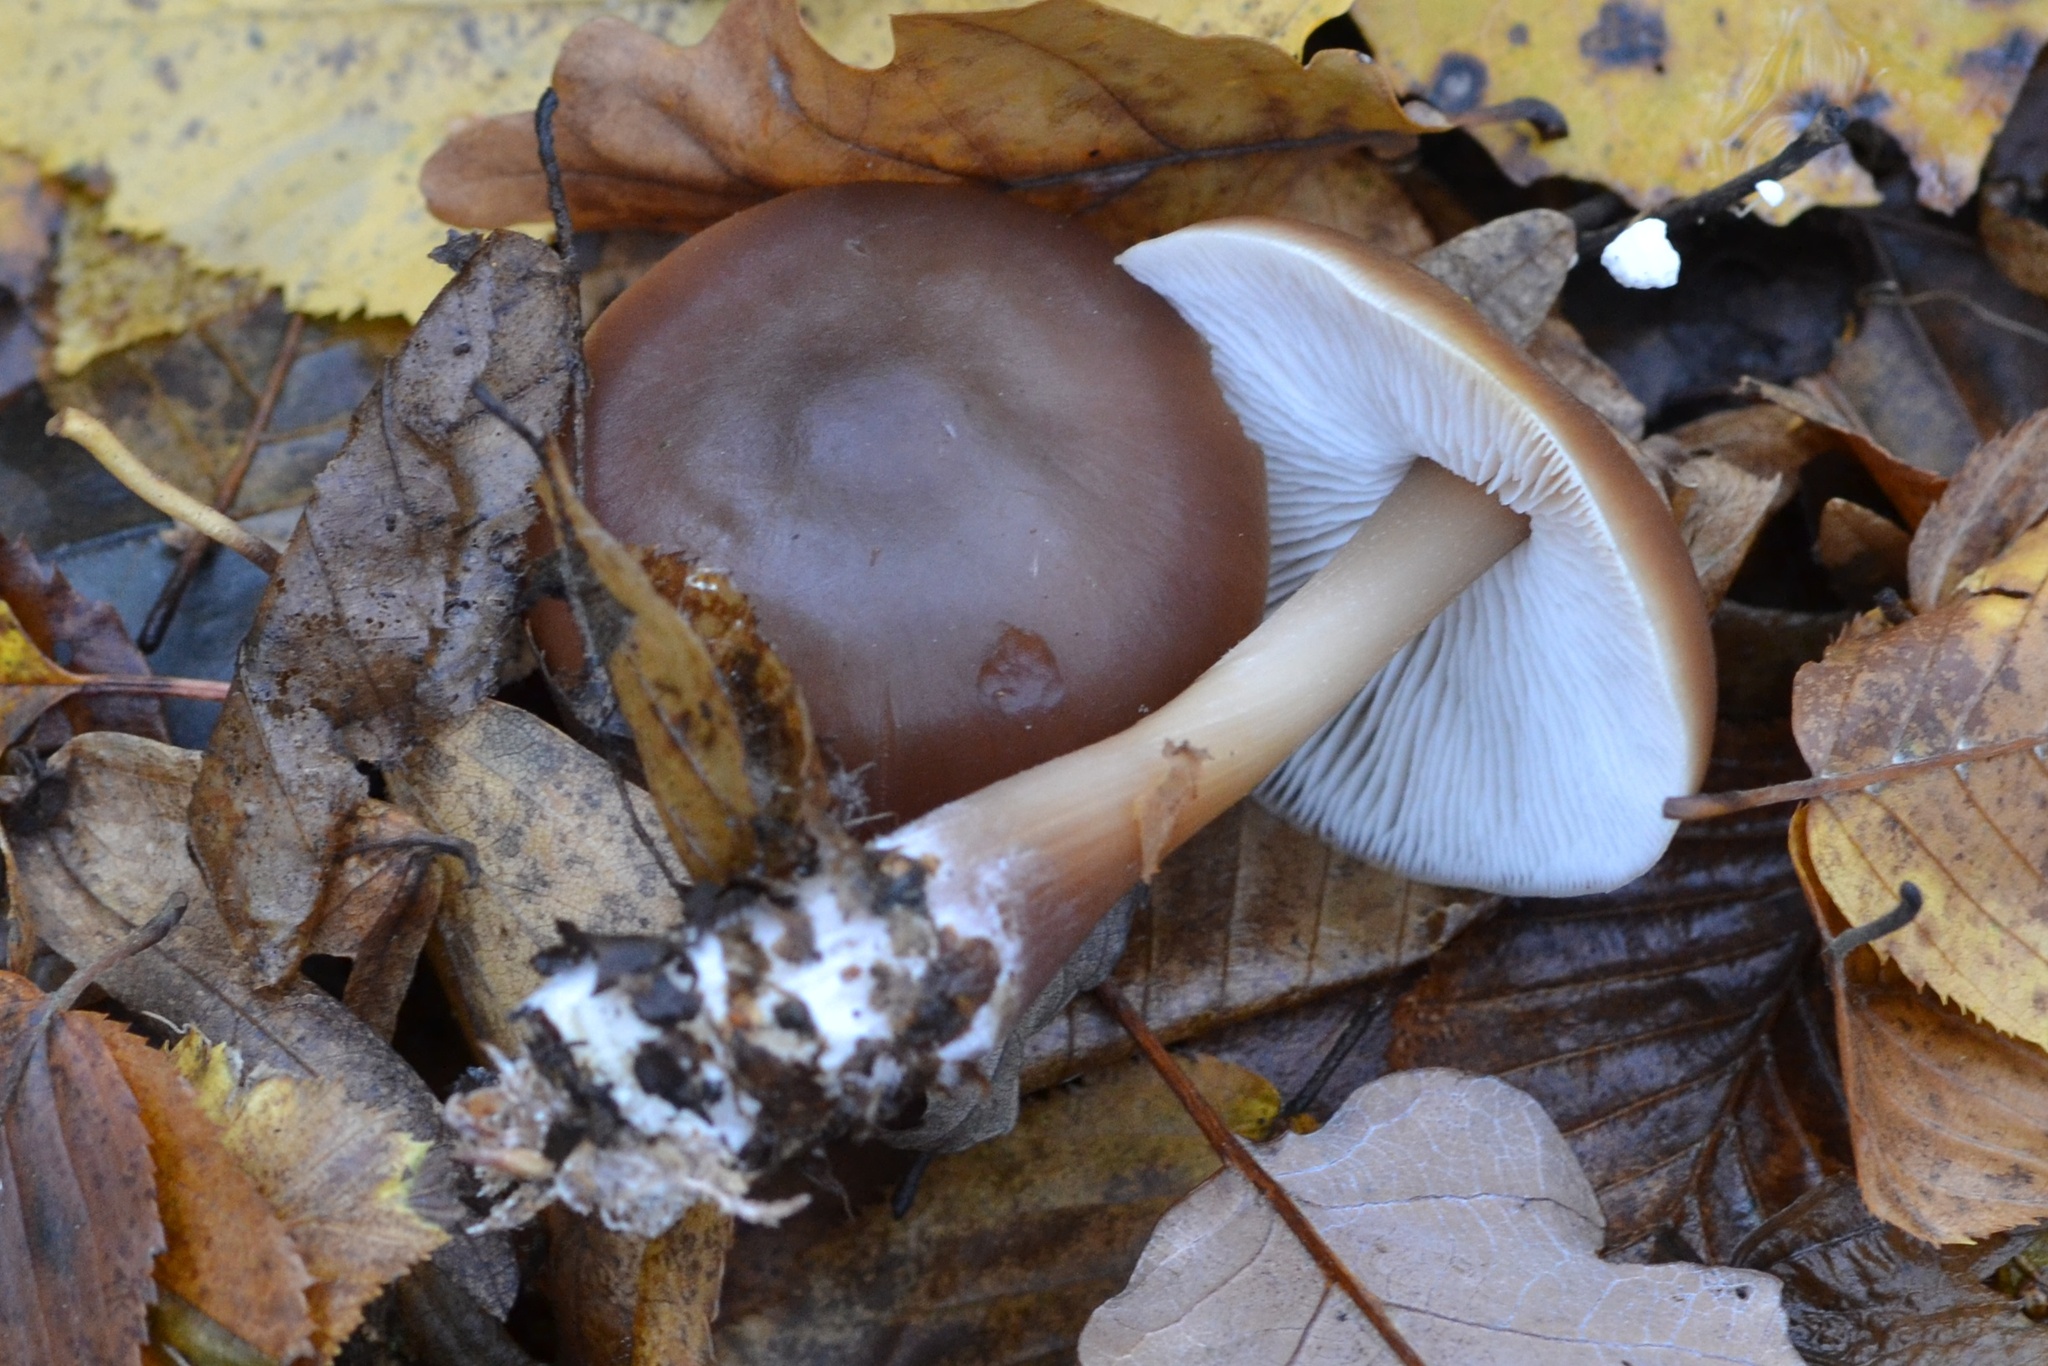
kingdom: Fungi
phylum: Basidiomycota
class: Agaricomycetes
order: Agaricales
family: Omphalotaceae
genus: Rhodocollybia
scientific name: Rhodocollybia butyracea
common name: Butter cap
